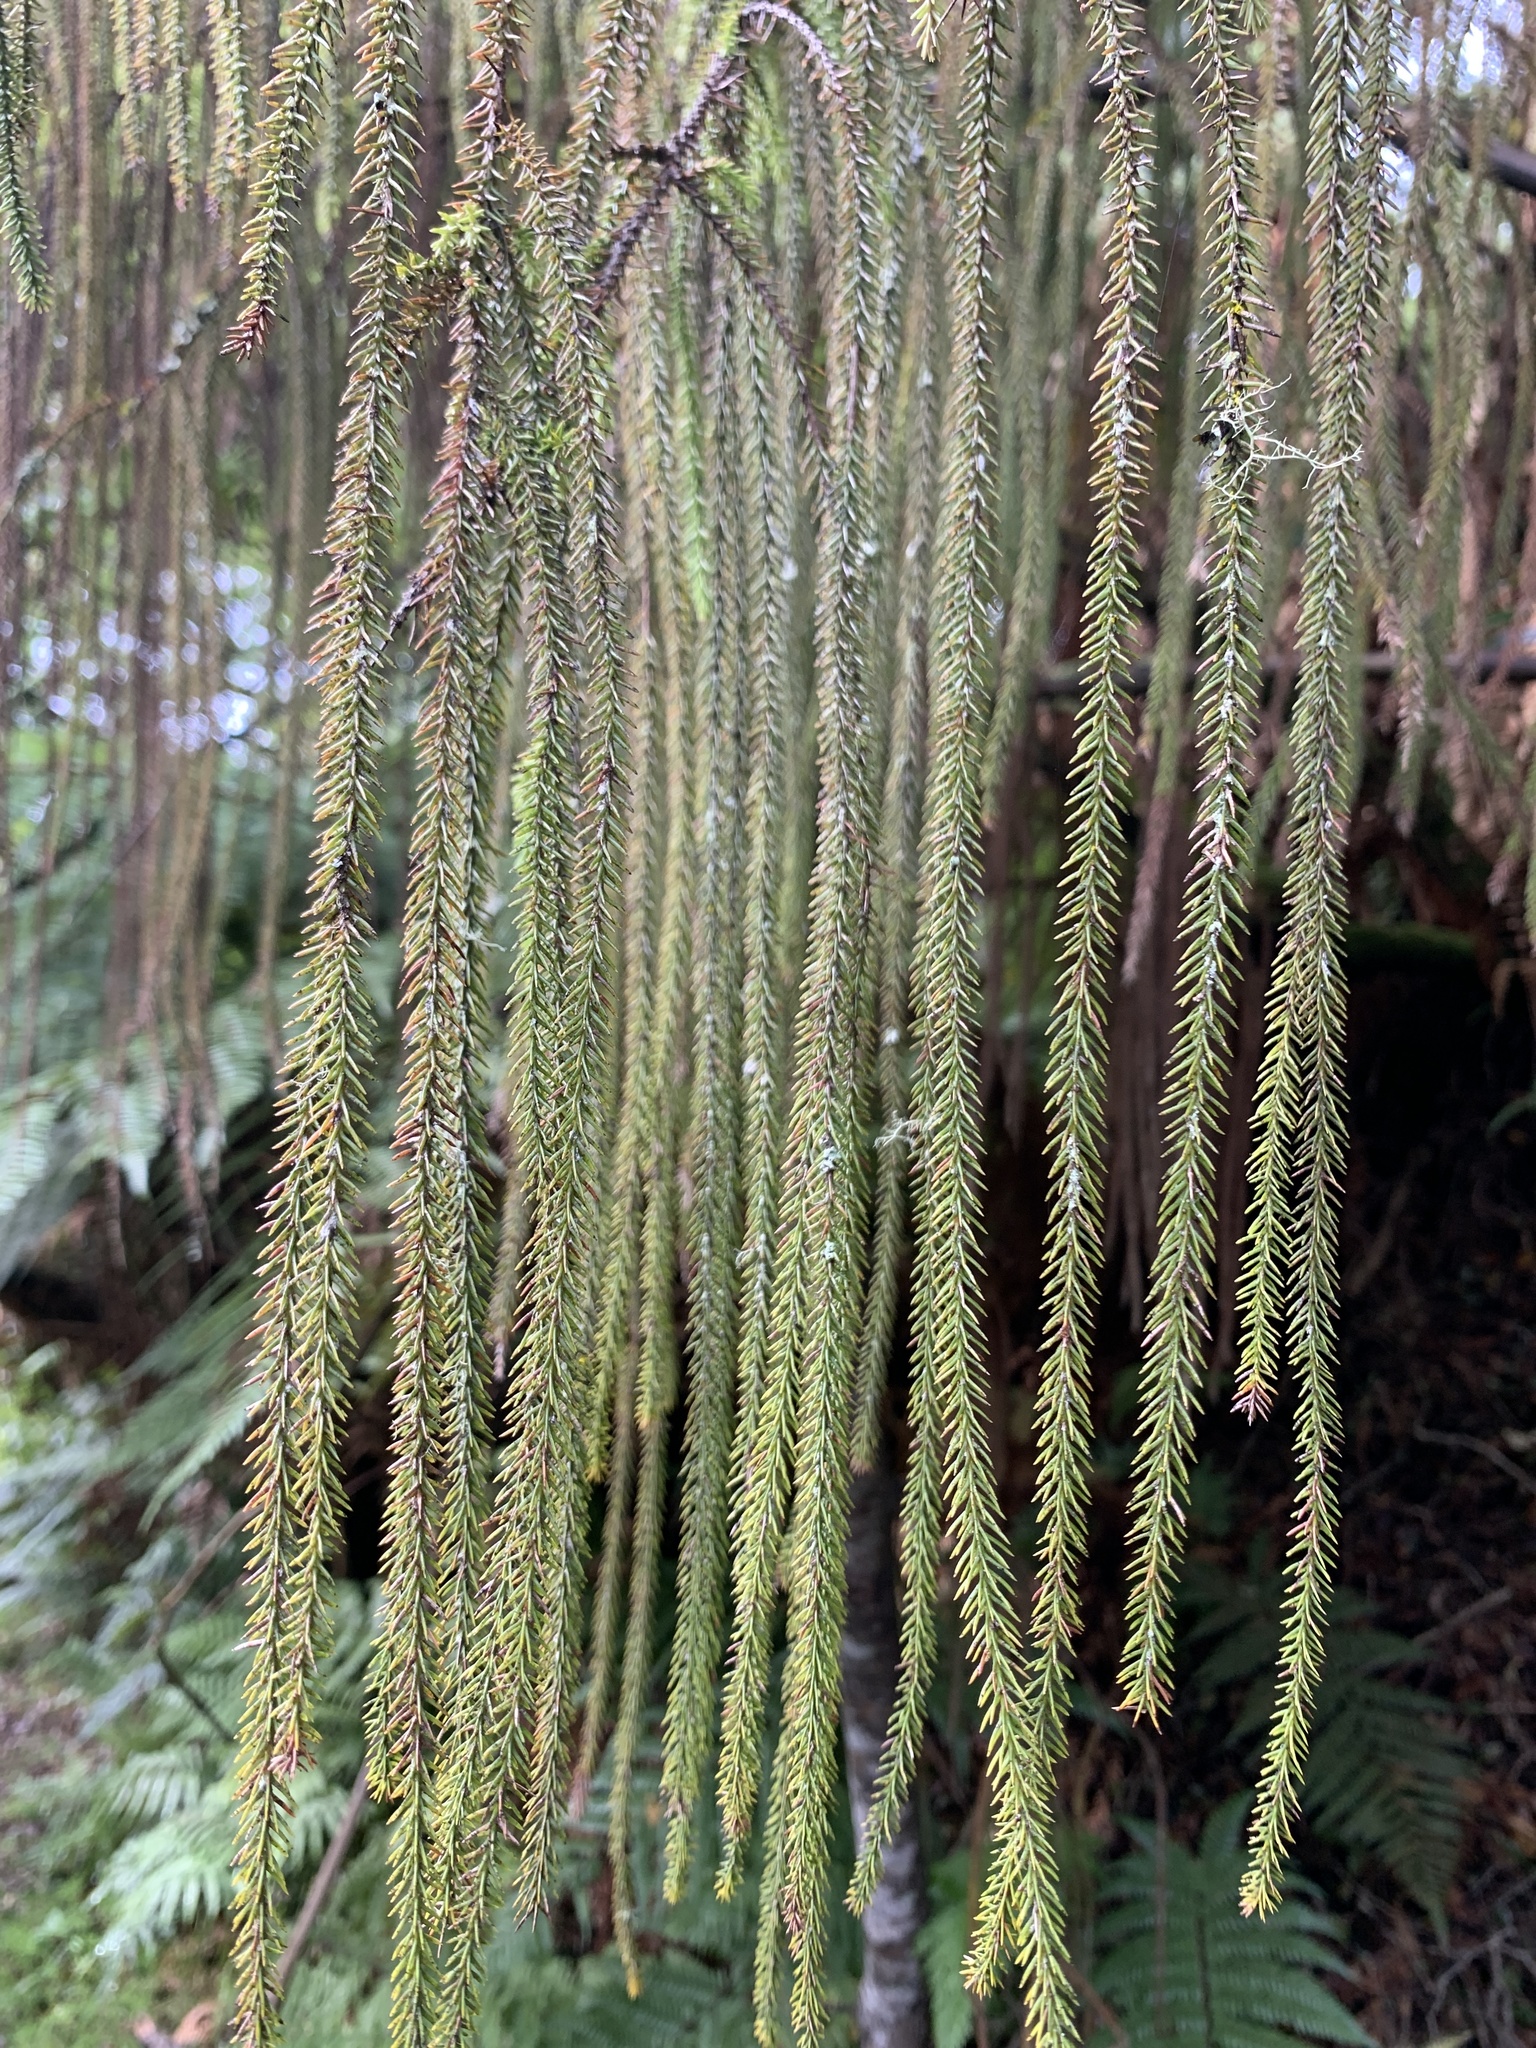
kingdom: Plantae
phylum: Tracheophyta
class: Pinopsida
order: Pinales
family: Podocarpaceae
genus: Dacrydium
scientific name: Dacrydium cupressinum
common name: Red pine
